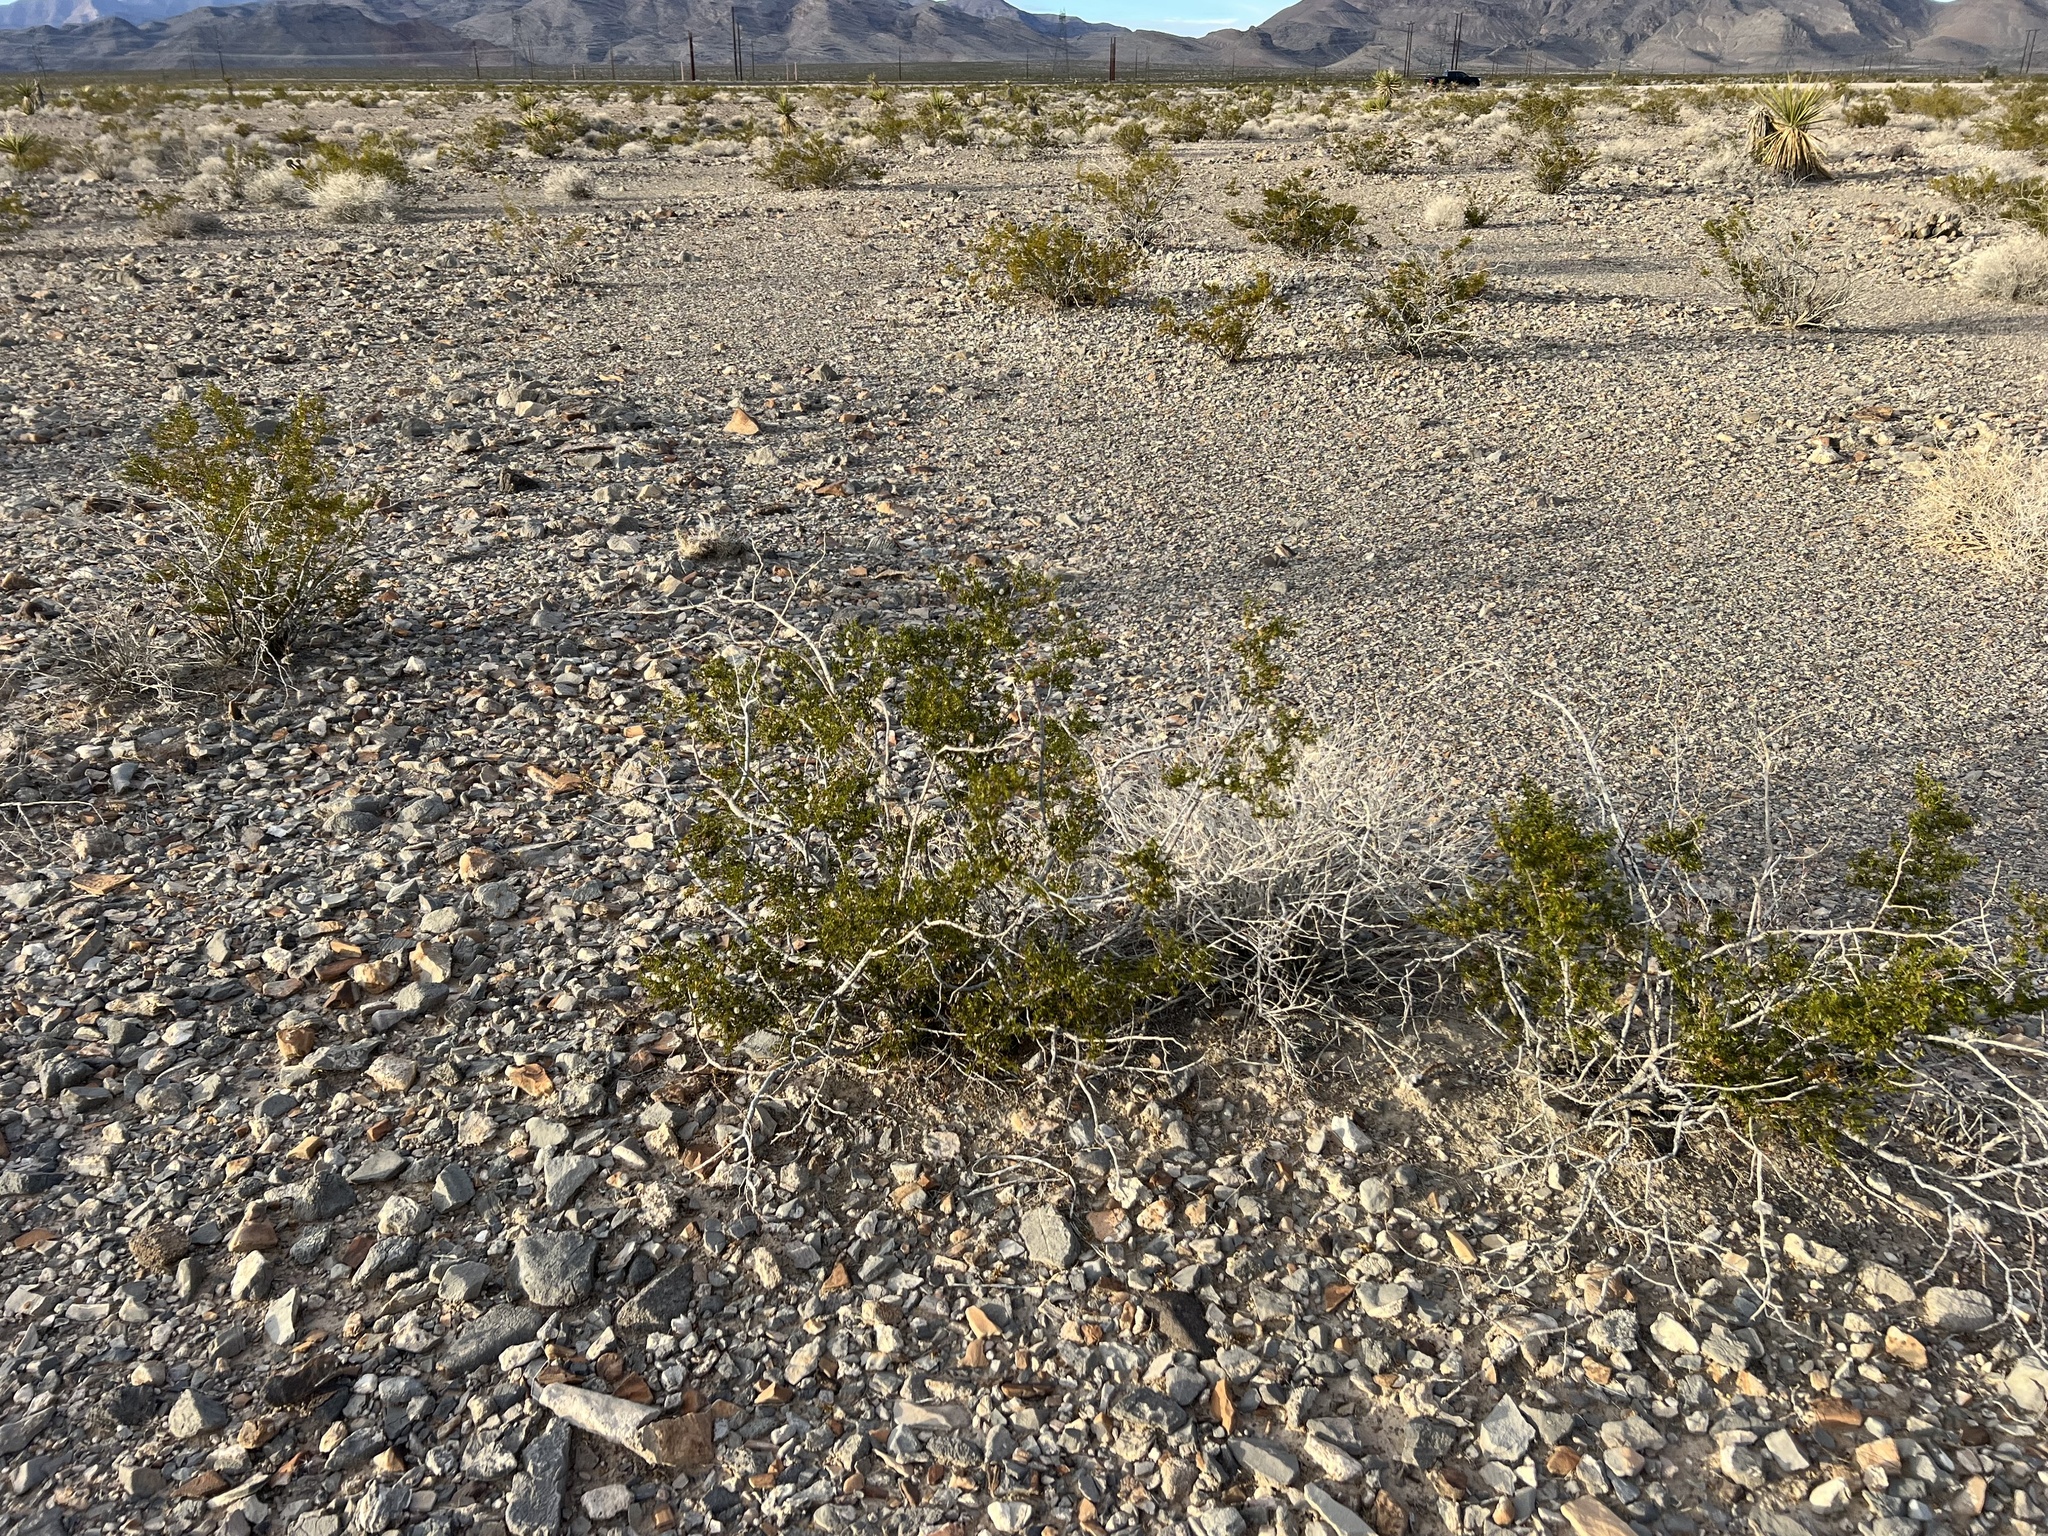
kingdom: Plantae
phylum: Tracheophyta
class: Magnoliopsida
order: Zygophyllales
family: Zygophyllaceae
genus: Larrea
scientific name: Larrea tridentata
